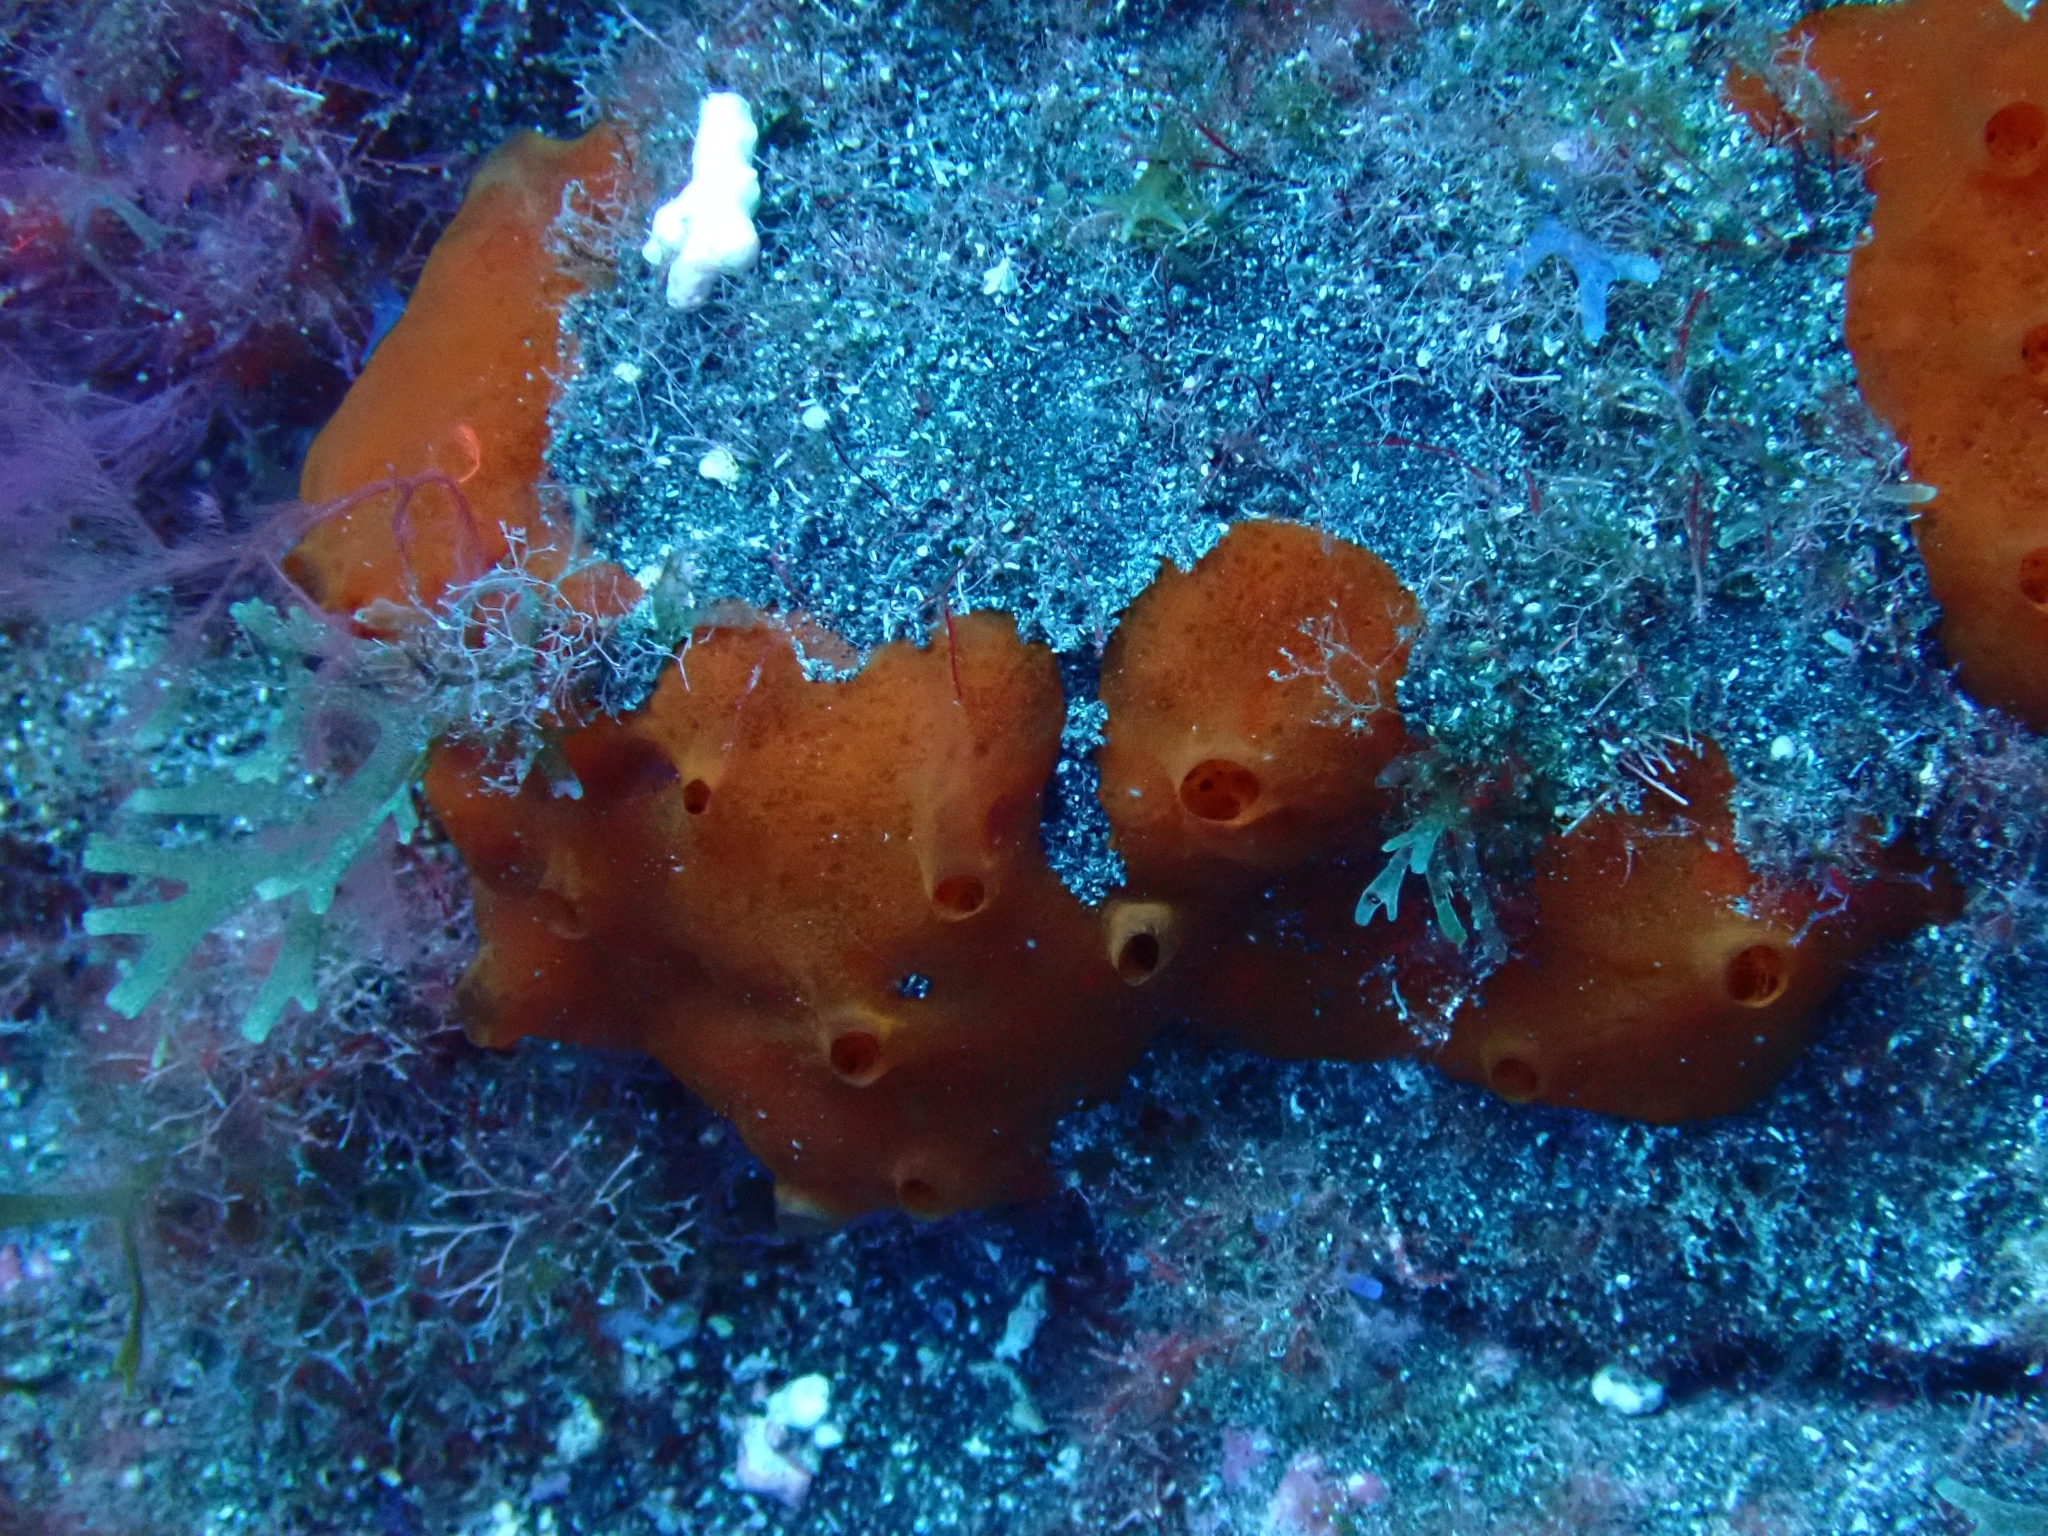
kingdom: Animalia
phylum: Porifera
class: Demospongiae
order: Poecilosclerida
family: Crambeidae
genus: Crambe
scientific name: Crambe crambe
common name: Orange-red encrusting sponge
